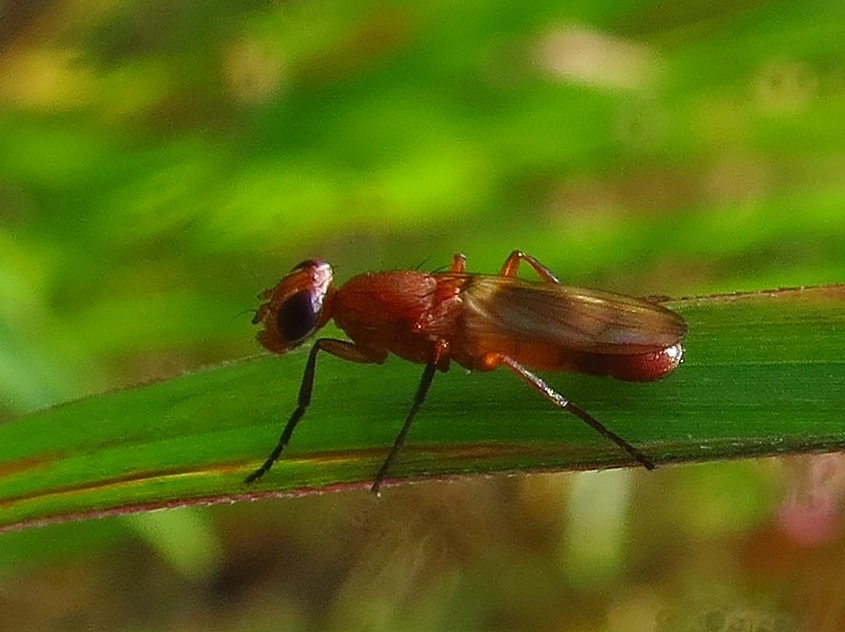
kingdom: Animalia
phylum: Arthropoda
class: Insecta
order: Diptera
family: Ulidiidae
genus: Zacompsia
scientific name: Zacompsia fulva
